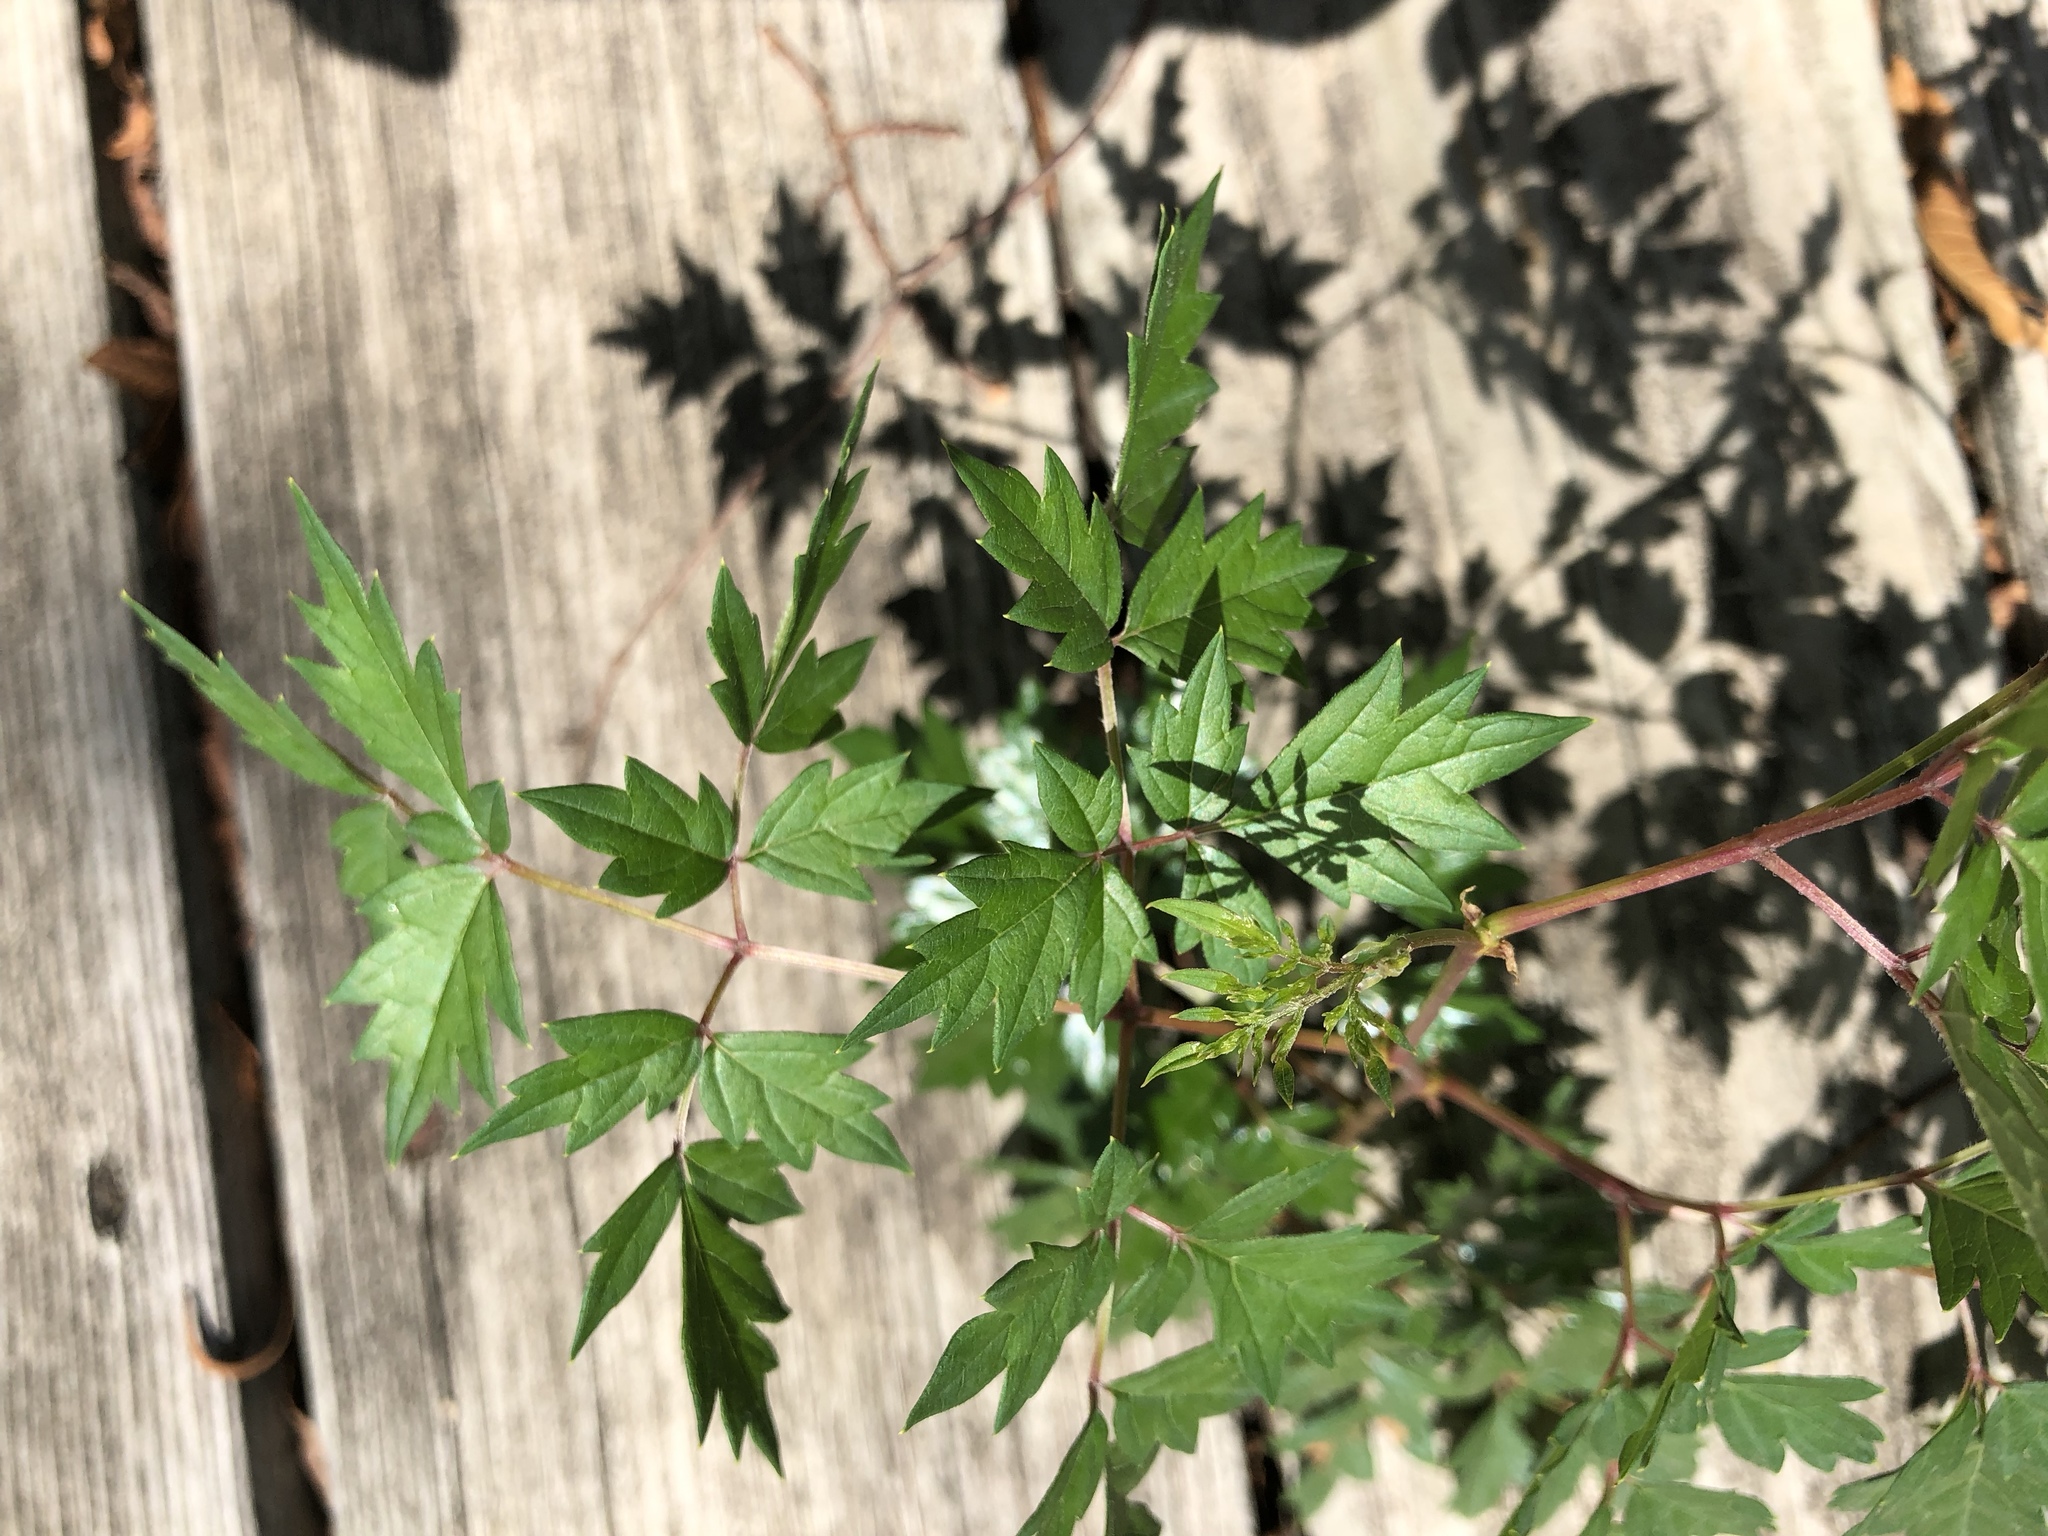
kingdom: Plantae
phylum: Tracheophyta
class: Magnoliopsida
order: Vitales
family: Vitaceae
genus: Nekemias
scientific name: Nekemias arborea
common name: Peppervine
